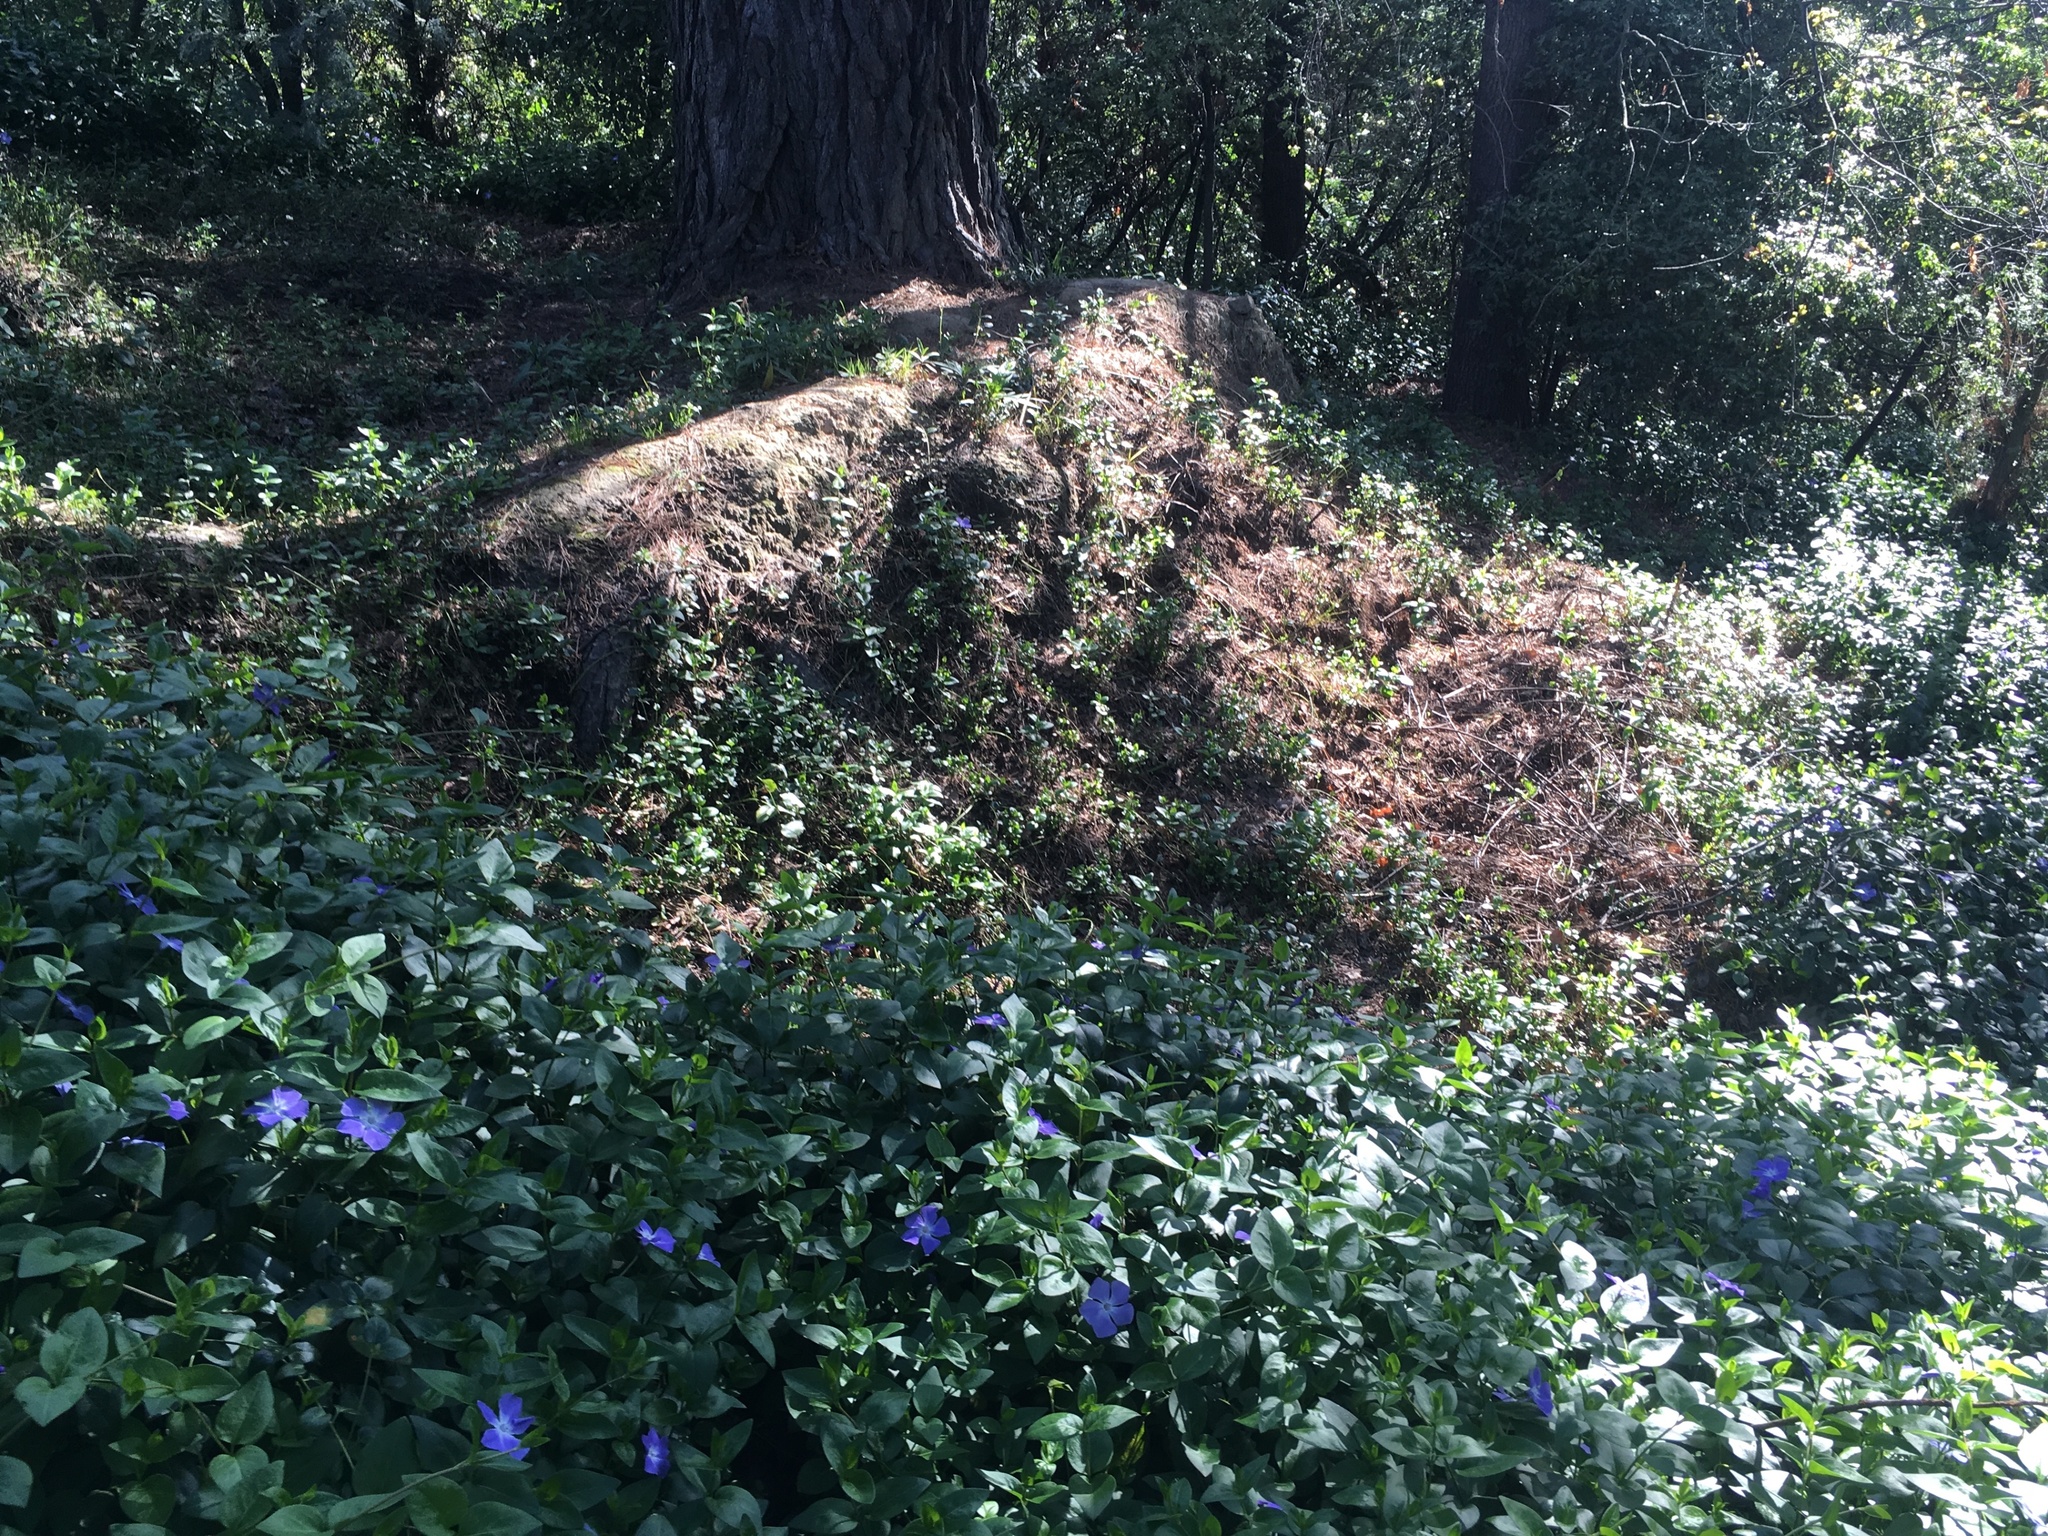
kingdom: Plantae
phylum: Tracheophyta
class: Magnoliopsida
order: Caryophyllales
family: Polygonaceae
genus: Muehlenbeckia
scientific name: Muehlenbeckia australis
